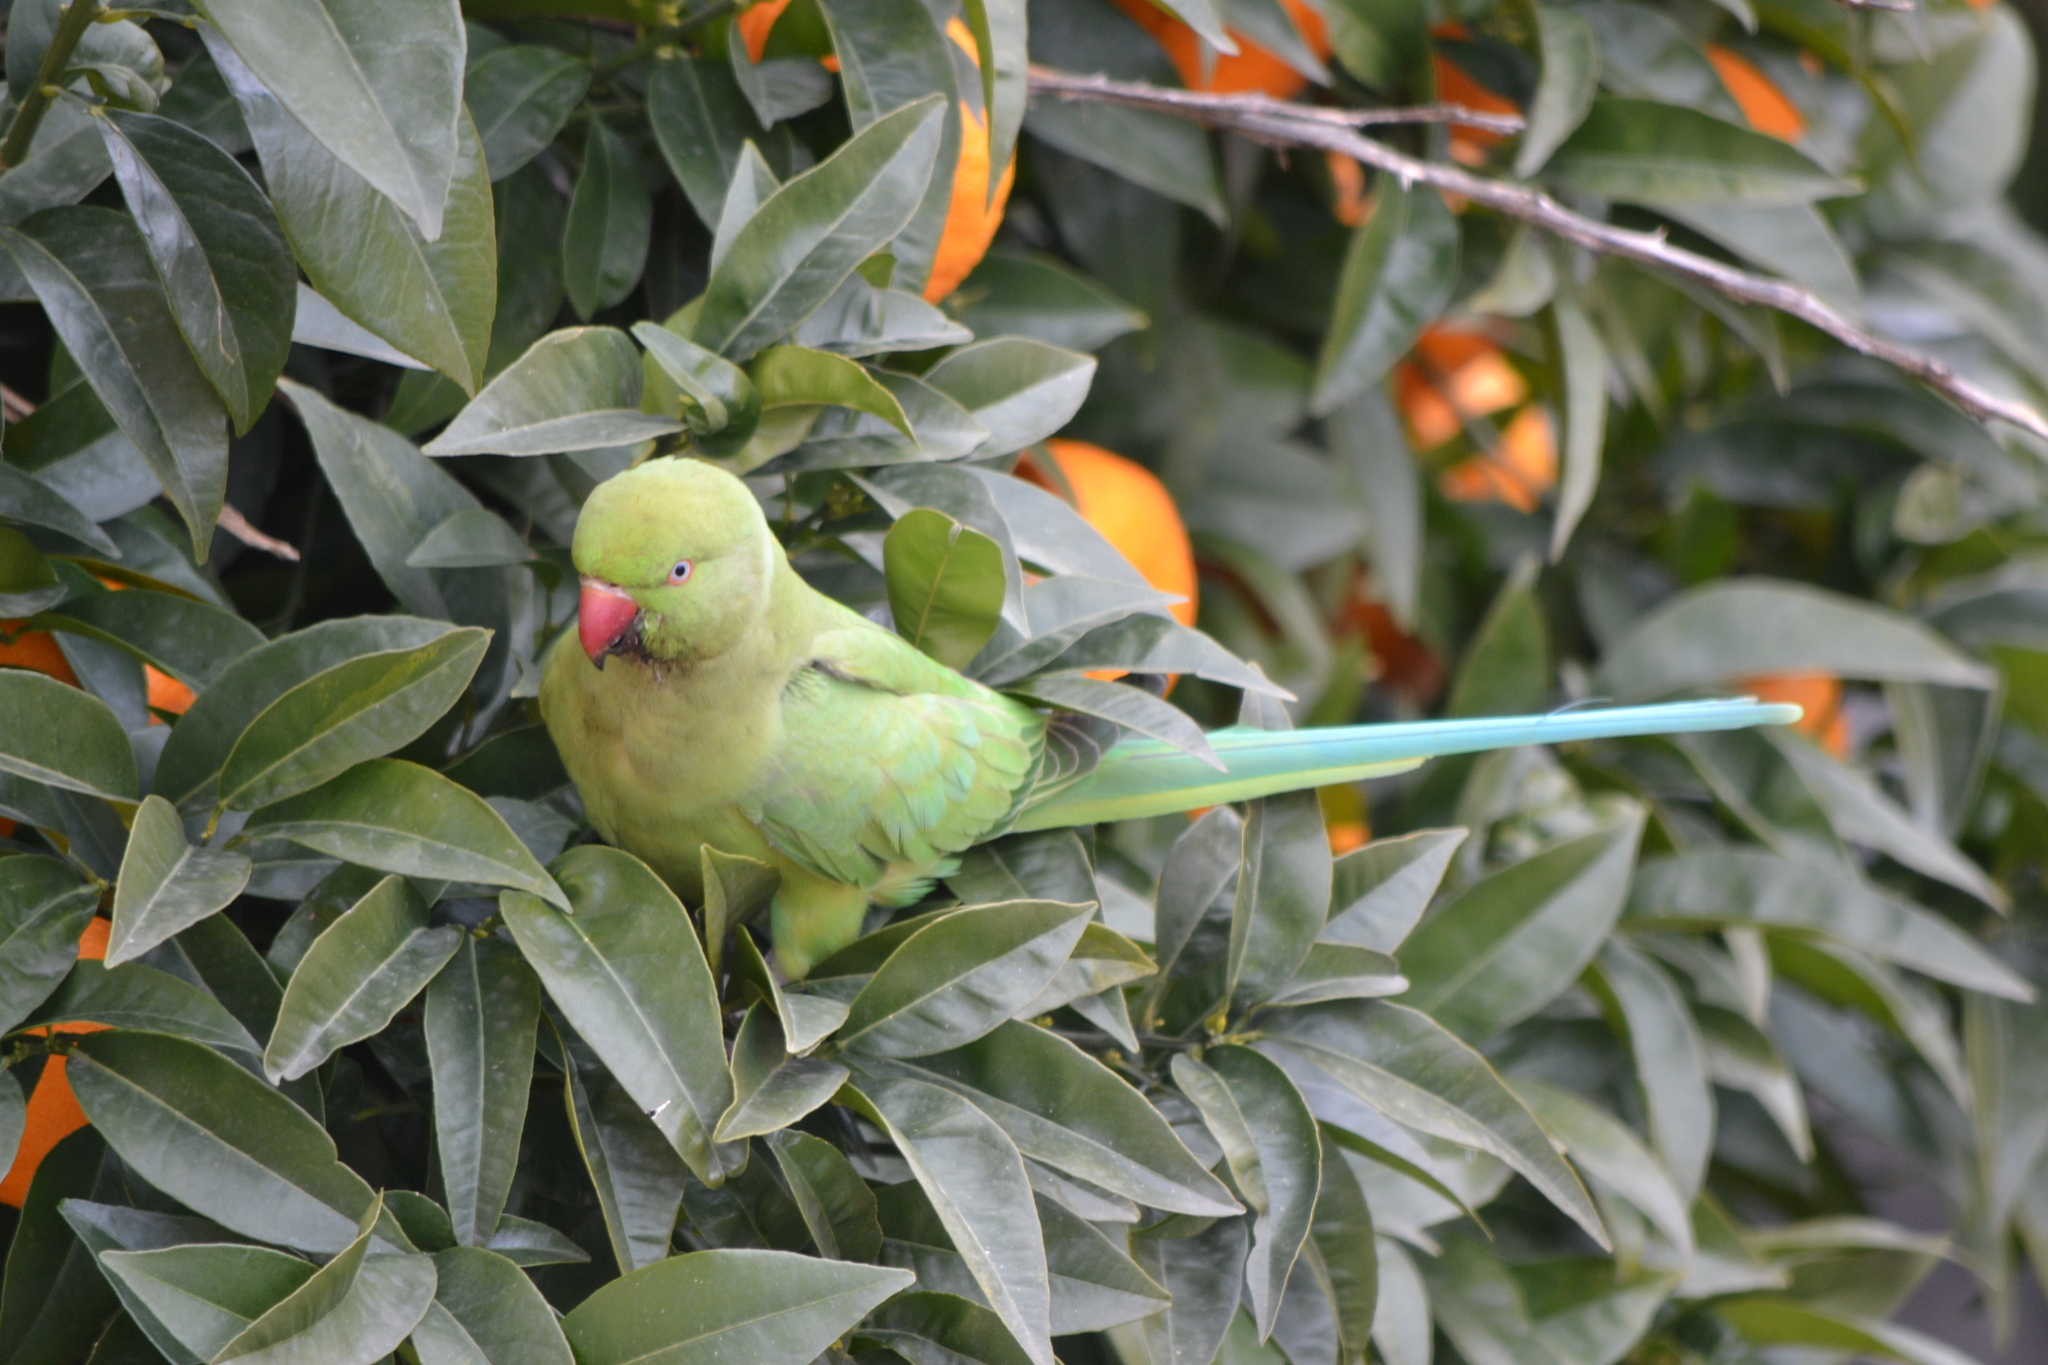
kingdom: Animalia
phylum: Chordata
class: Aves
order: Psittaciformes
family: Psittacidae
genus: Psittacula
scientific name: Psittacula krameri
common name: Rose-ringed parakeet
